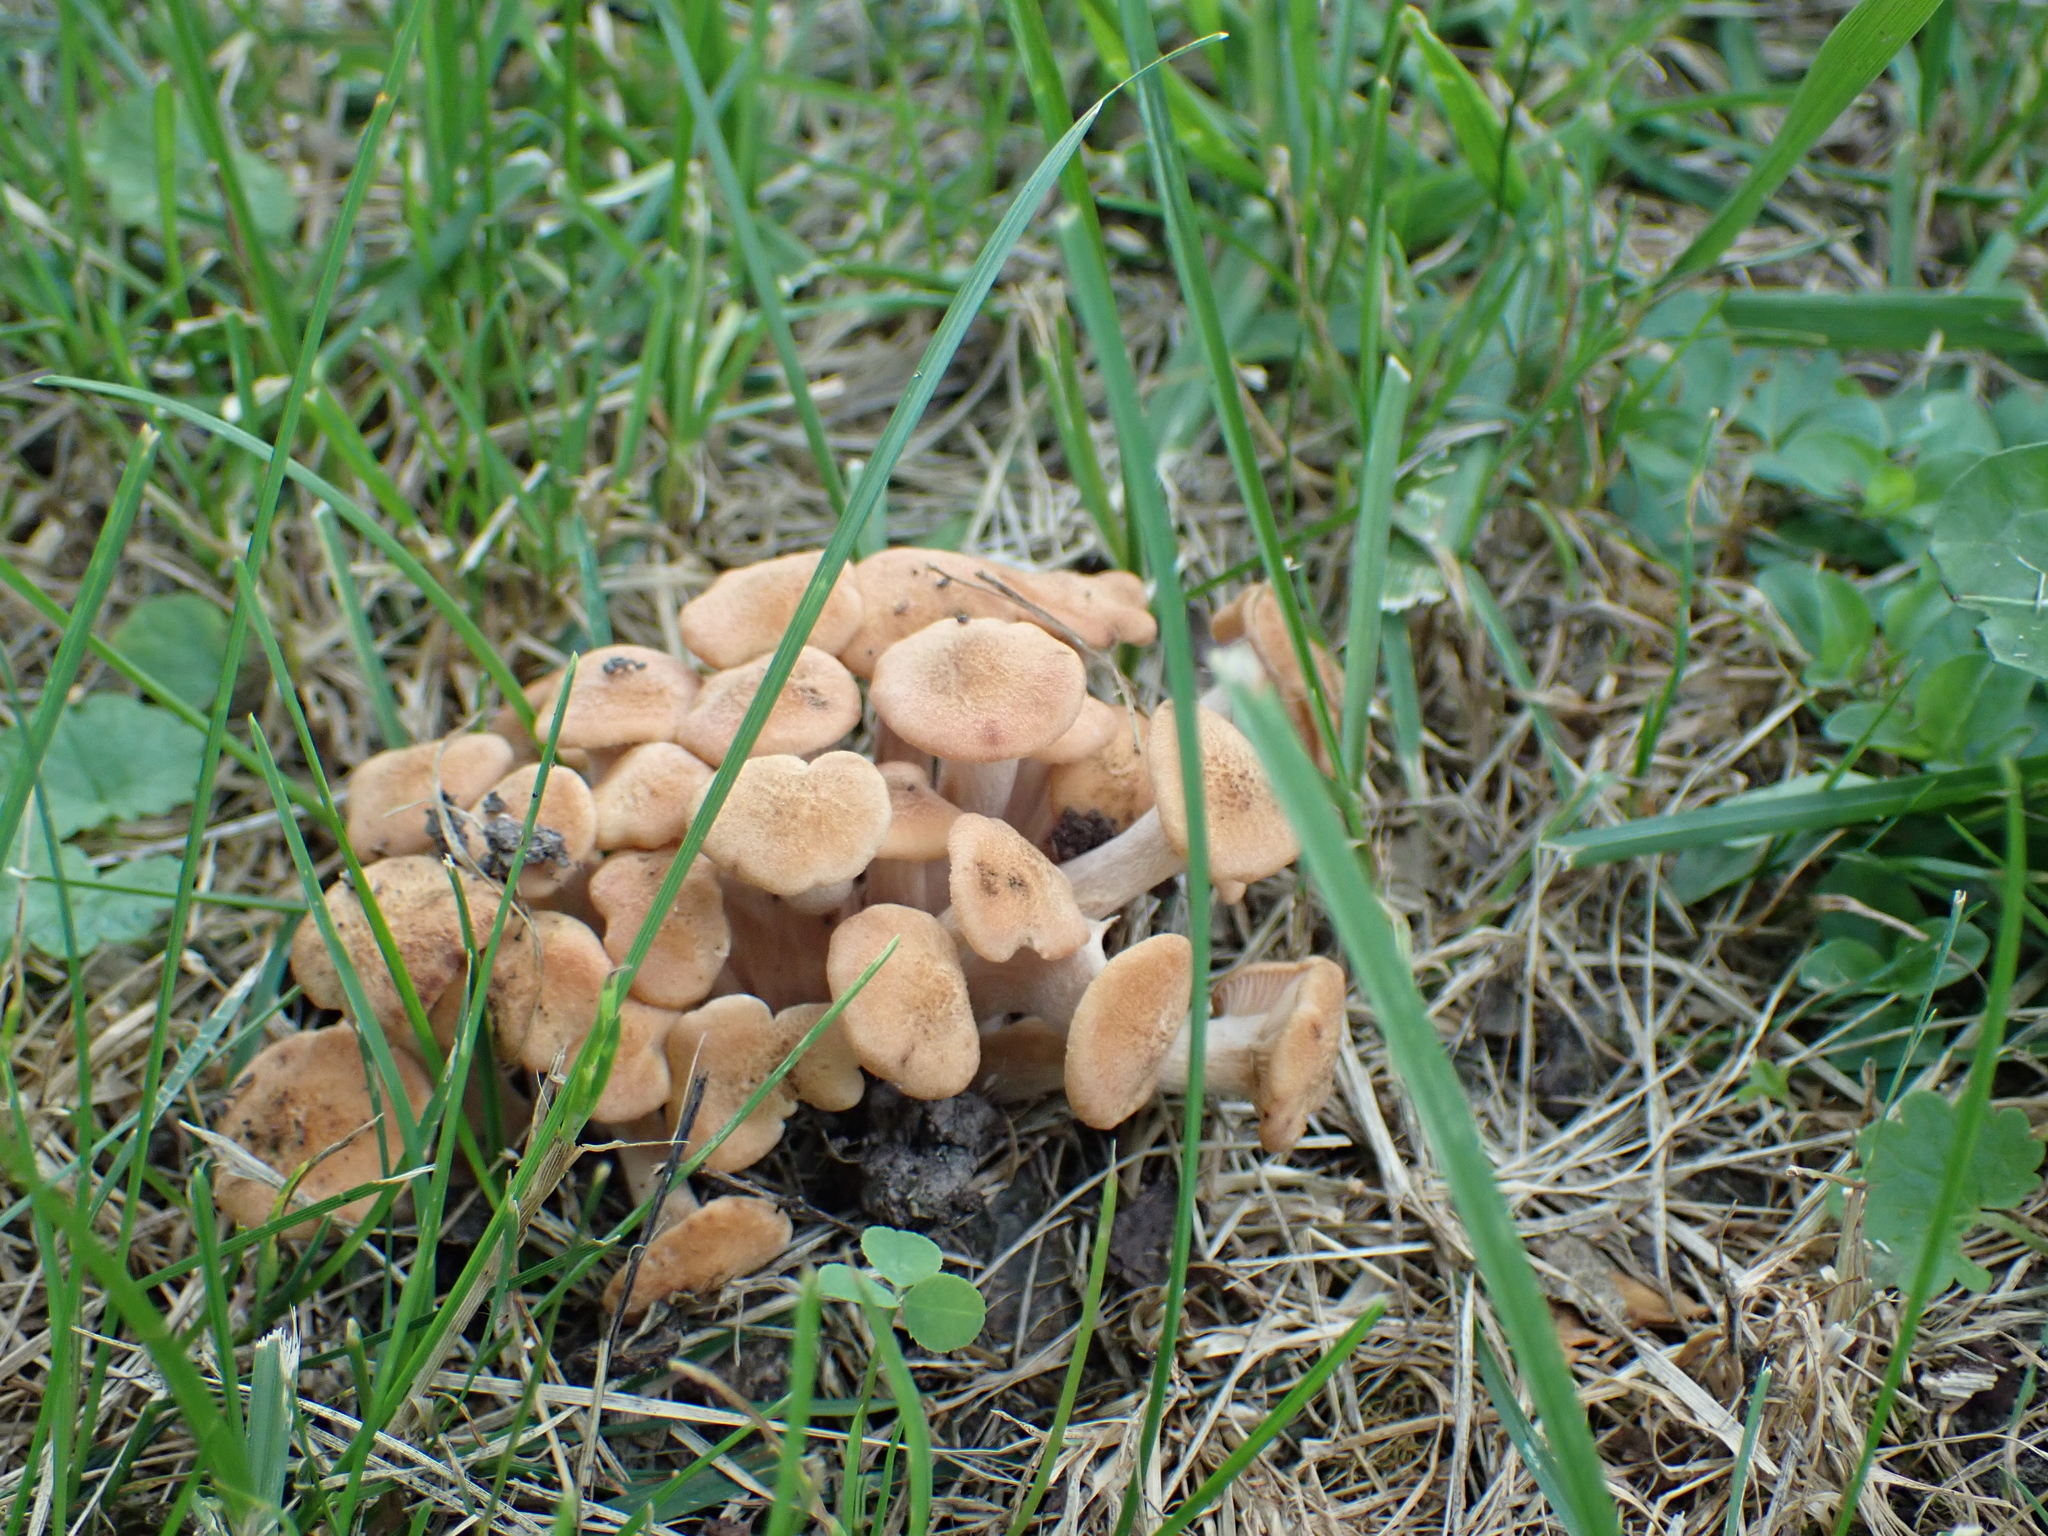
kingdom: Fungi
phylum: Basidiomycota
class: Agaricomycetes
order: Agaricales
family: Physalacriaceae
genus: Desarmillaria
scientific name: Desarmillaria caespitosa
